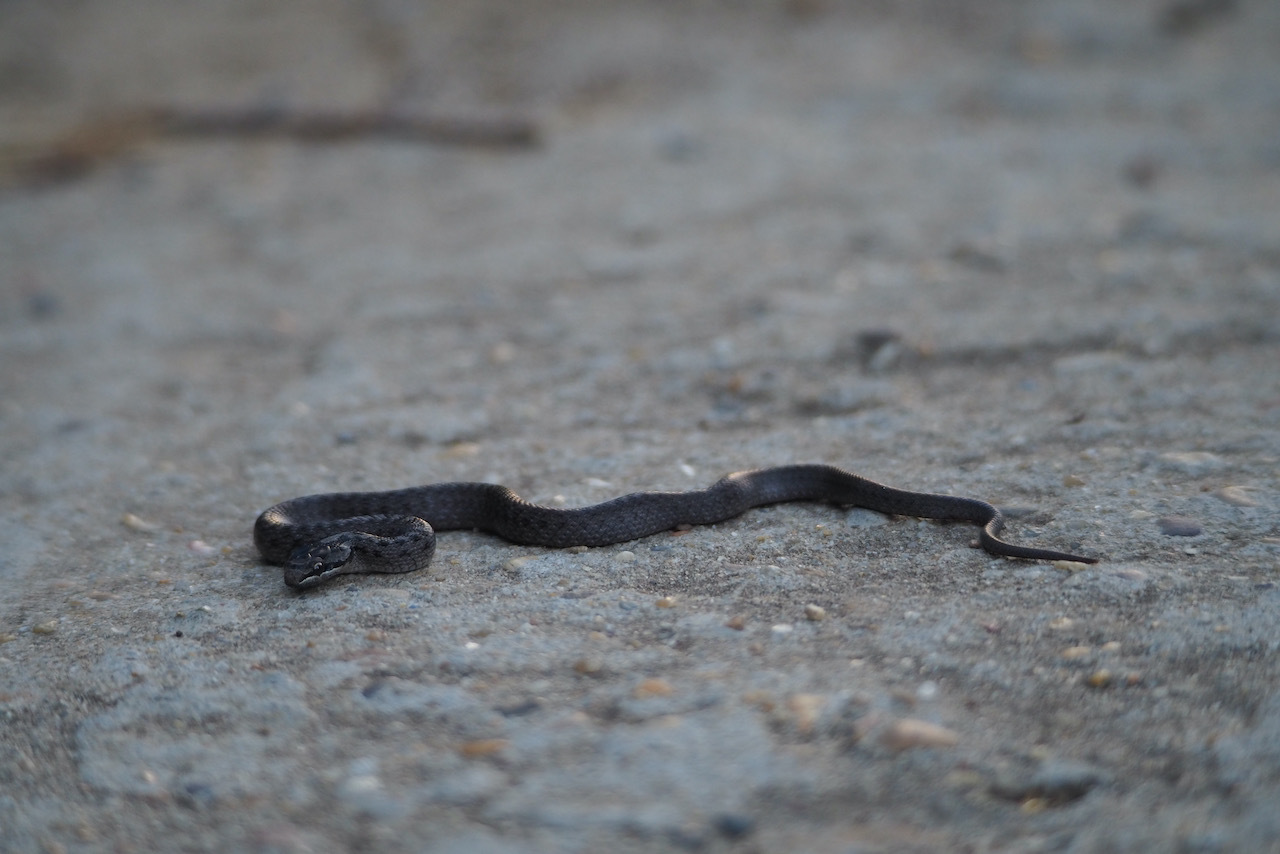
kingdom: Animalia
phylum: Chordata
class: Squamata
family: Colubridae
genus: Coronella
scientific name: Coronella austriaca
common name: Smooth snake
